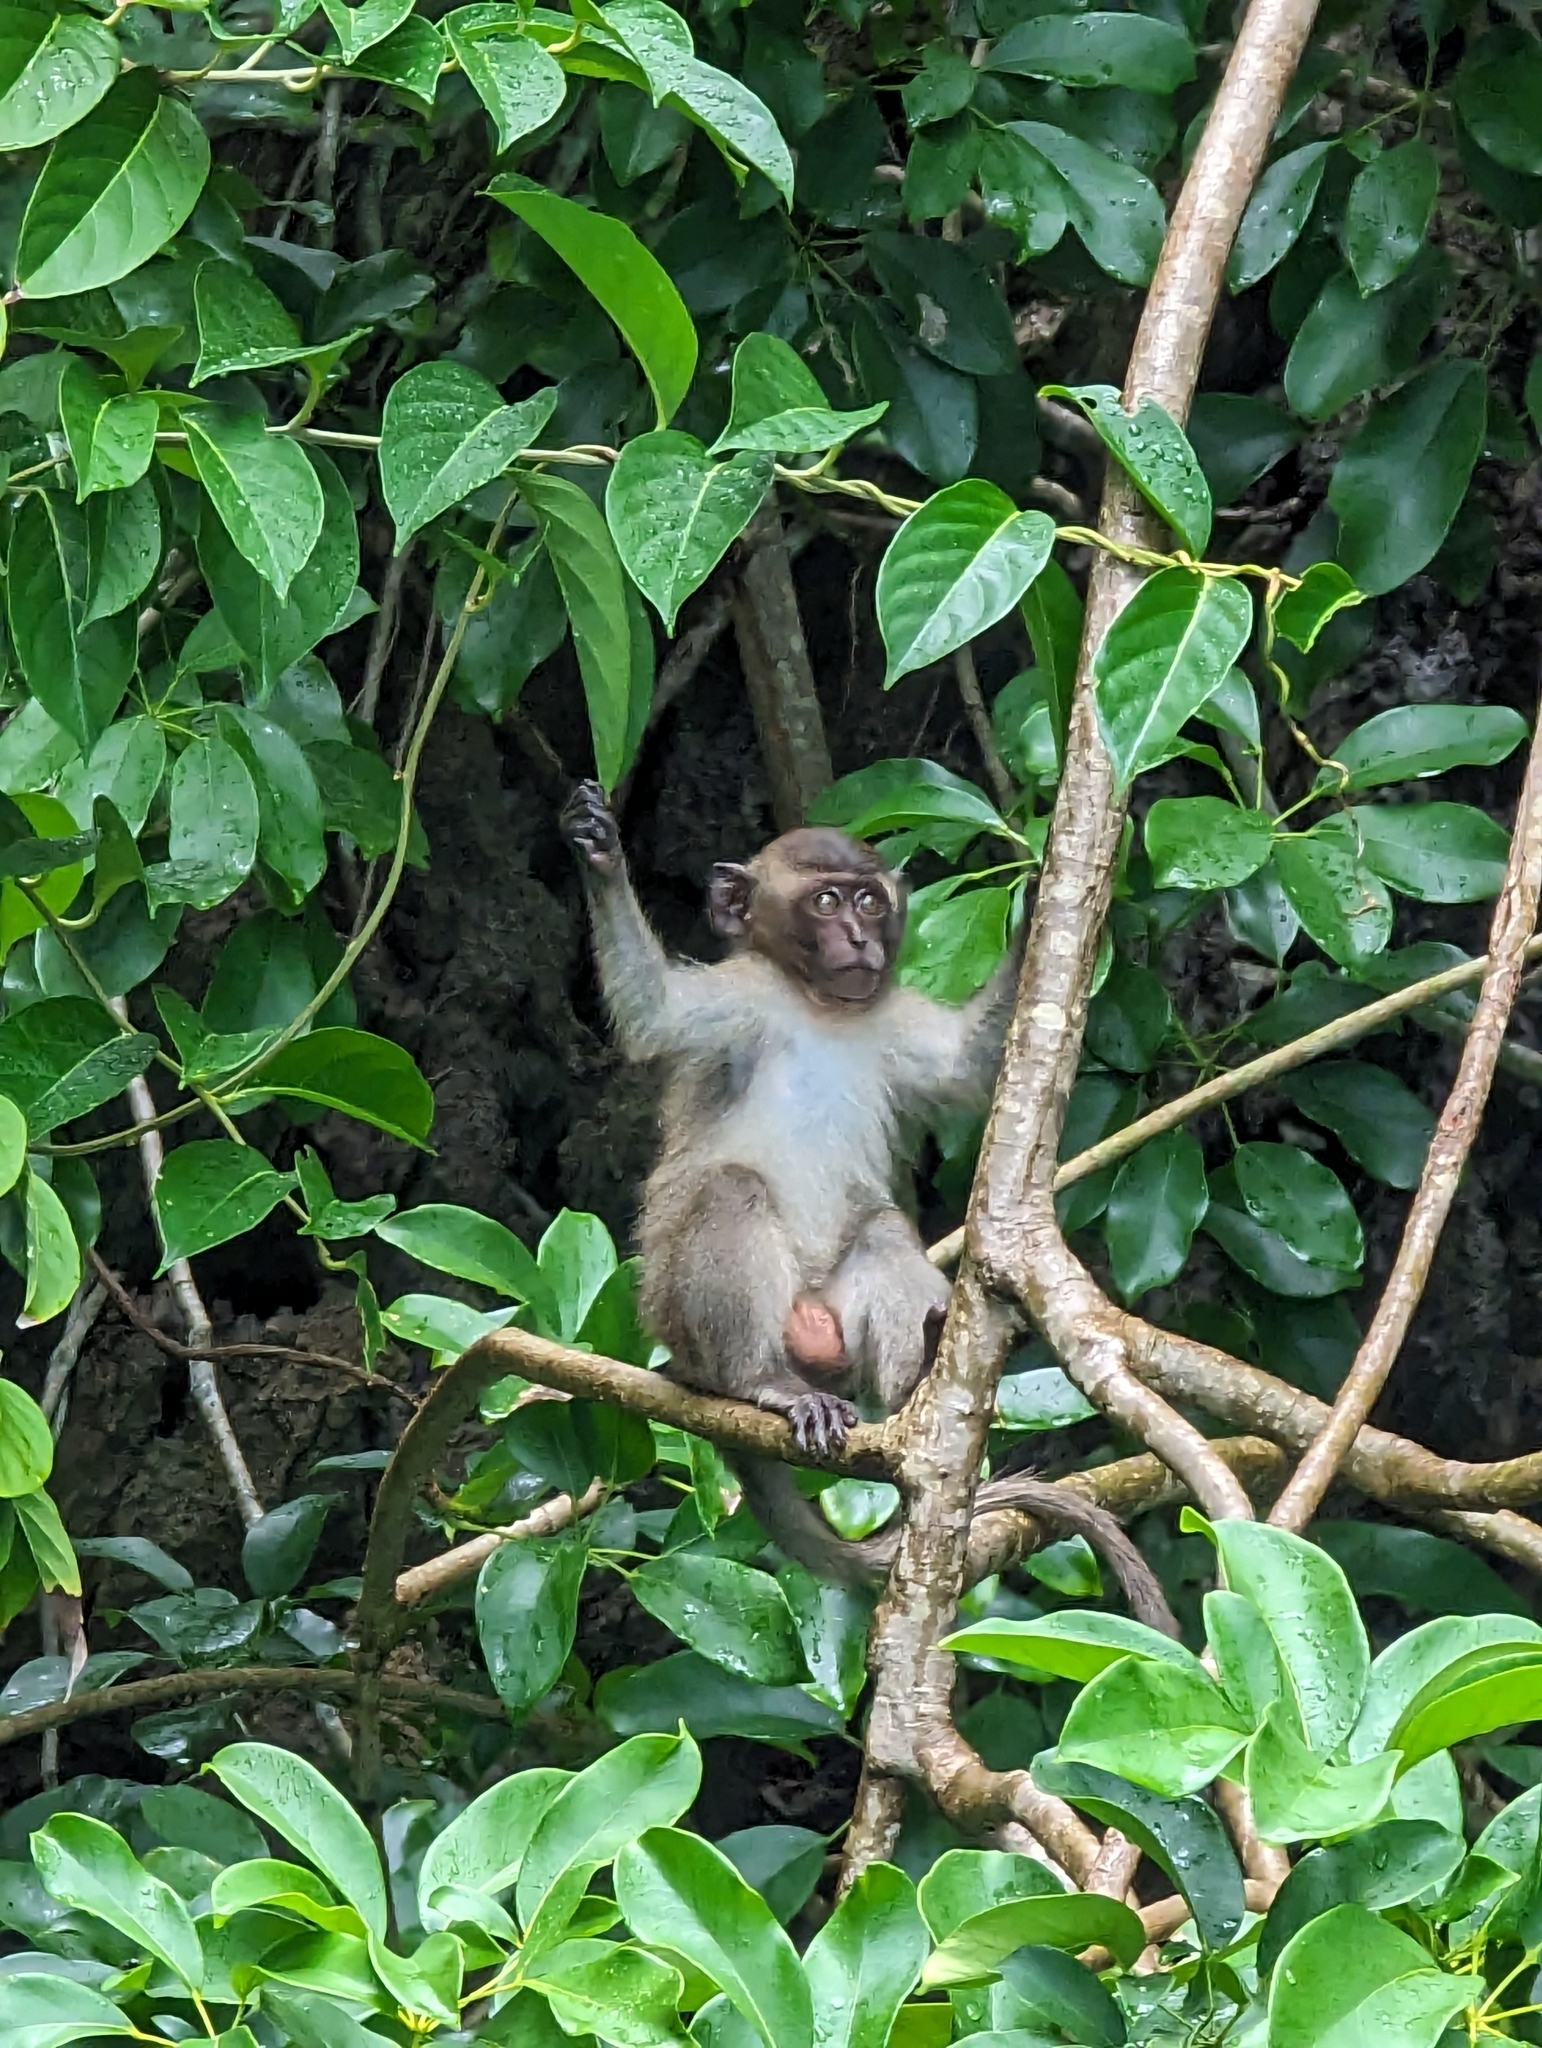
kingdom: Animalia
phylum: Chordata
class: Mammalia
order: Primates
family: Cercopithecidae
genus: Macaca
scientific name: Macaca fascicularis
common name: Crab-eating macaque
